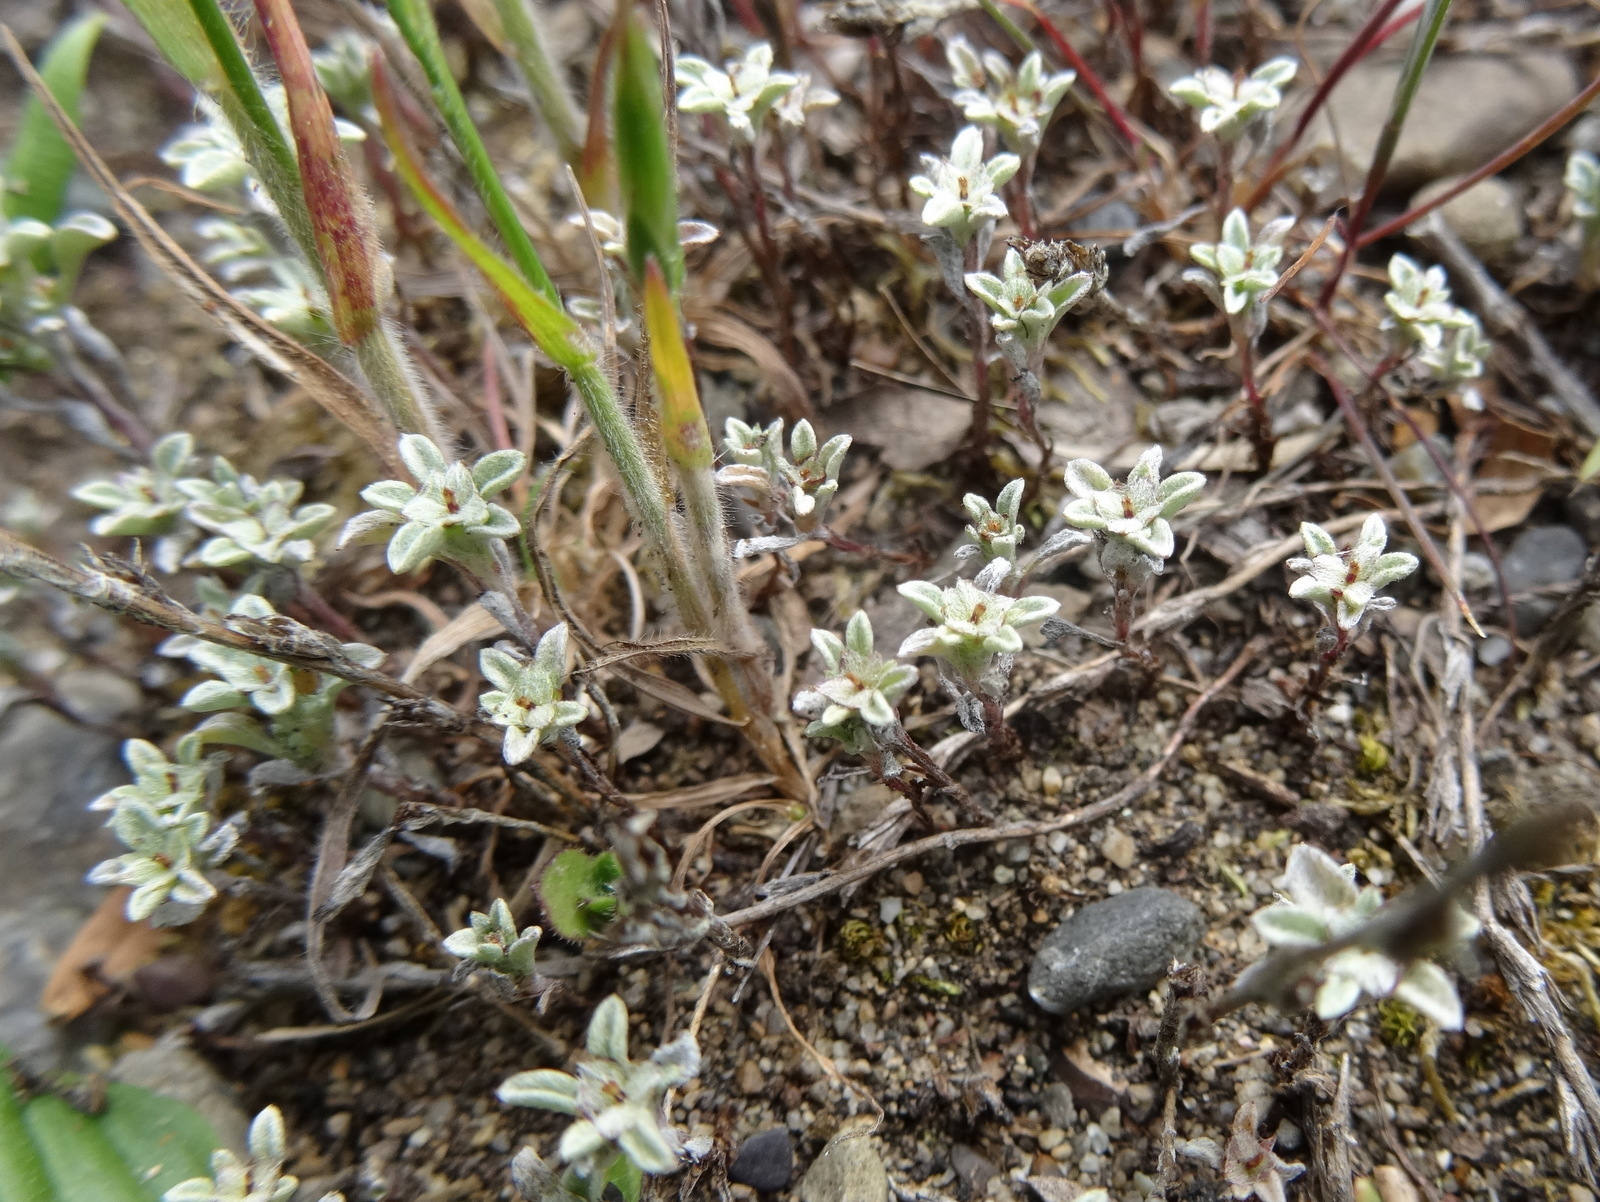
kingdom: Plantae
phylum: Tracheophyta
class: Magnoliopsida
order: Asterales
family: Asteraceae
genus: Hesperevax
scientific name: Hesperevax sparsiflora
